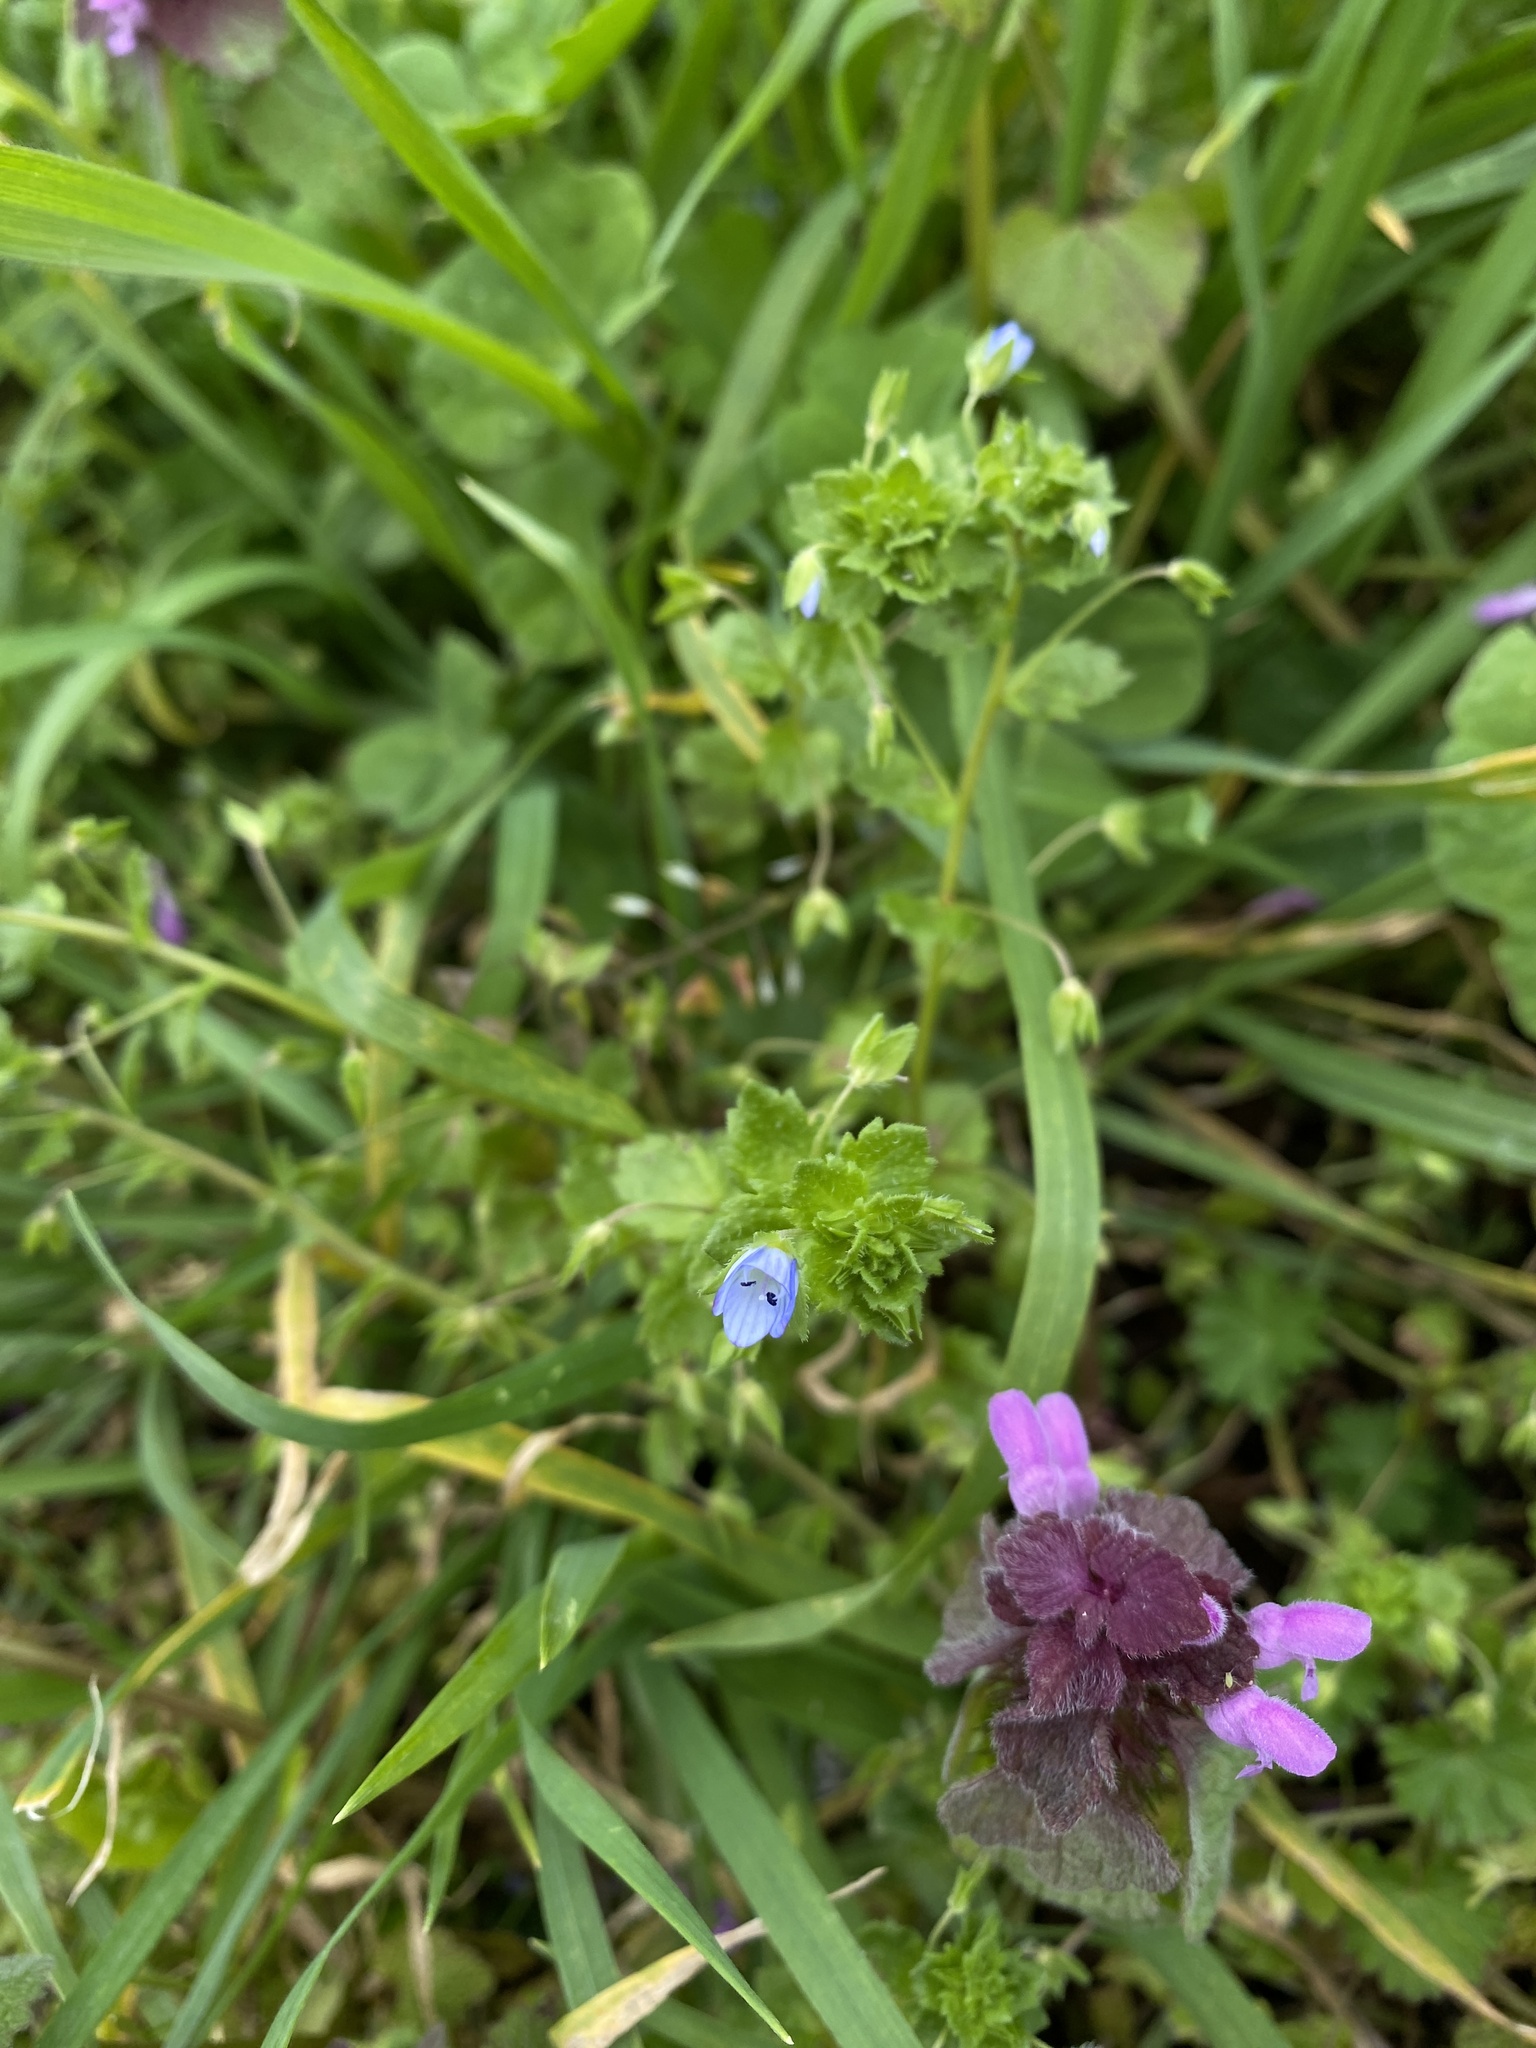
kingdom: Plantae
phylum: Tracheophyta
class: Magnoliopsida
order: Lamiales
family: Plantaginaceae
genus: Veronica
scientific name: Veronica persica
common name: Common field-speedwell
